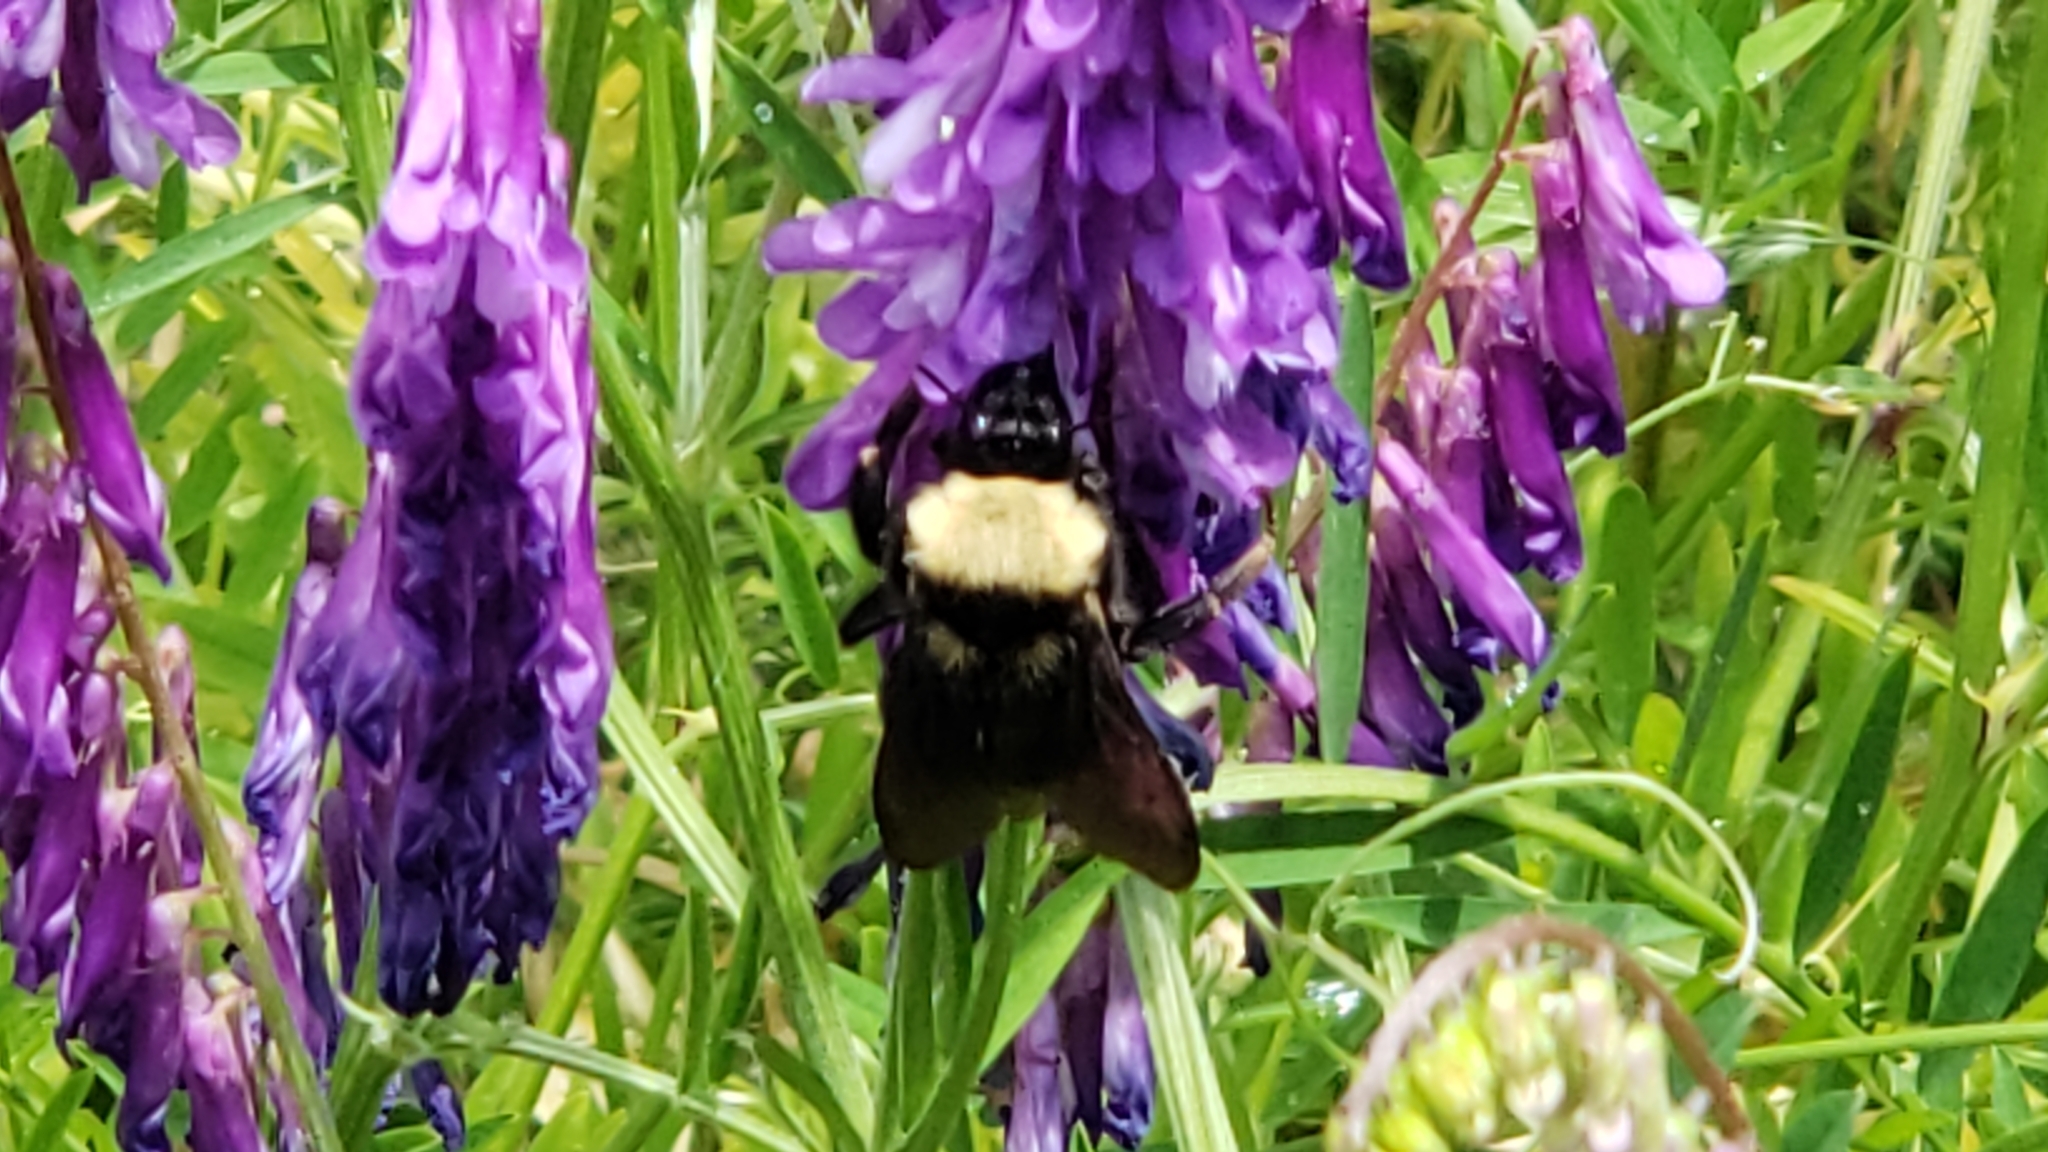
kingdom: Animalia
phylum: Arthropoda
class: Insecta
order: Hymenoptera
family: Apidae
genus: Bombus
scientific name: Bombus californicus
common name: California bumble bee
